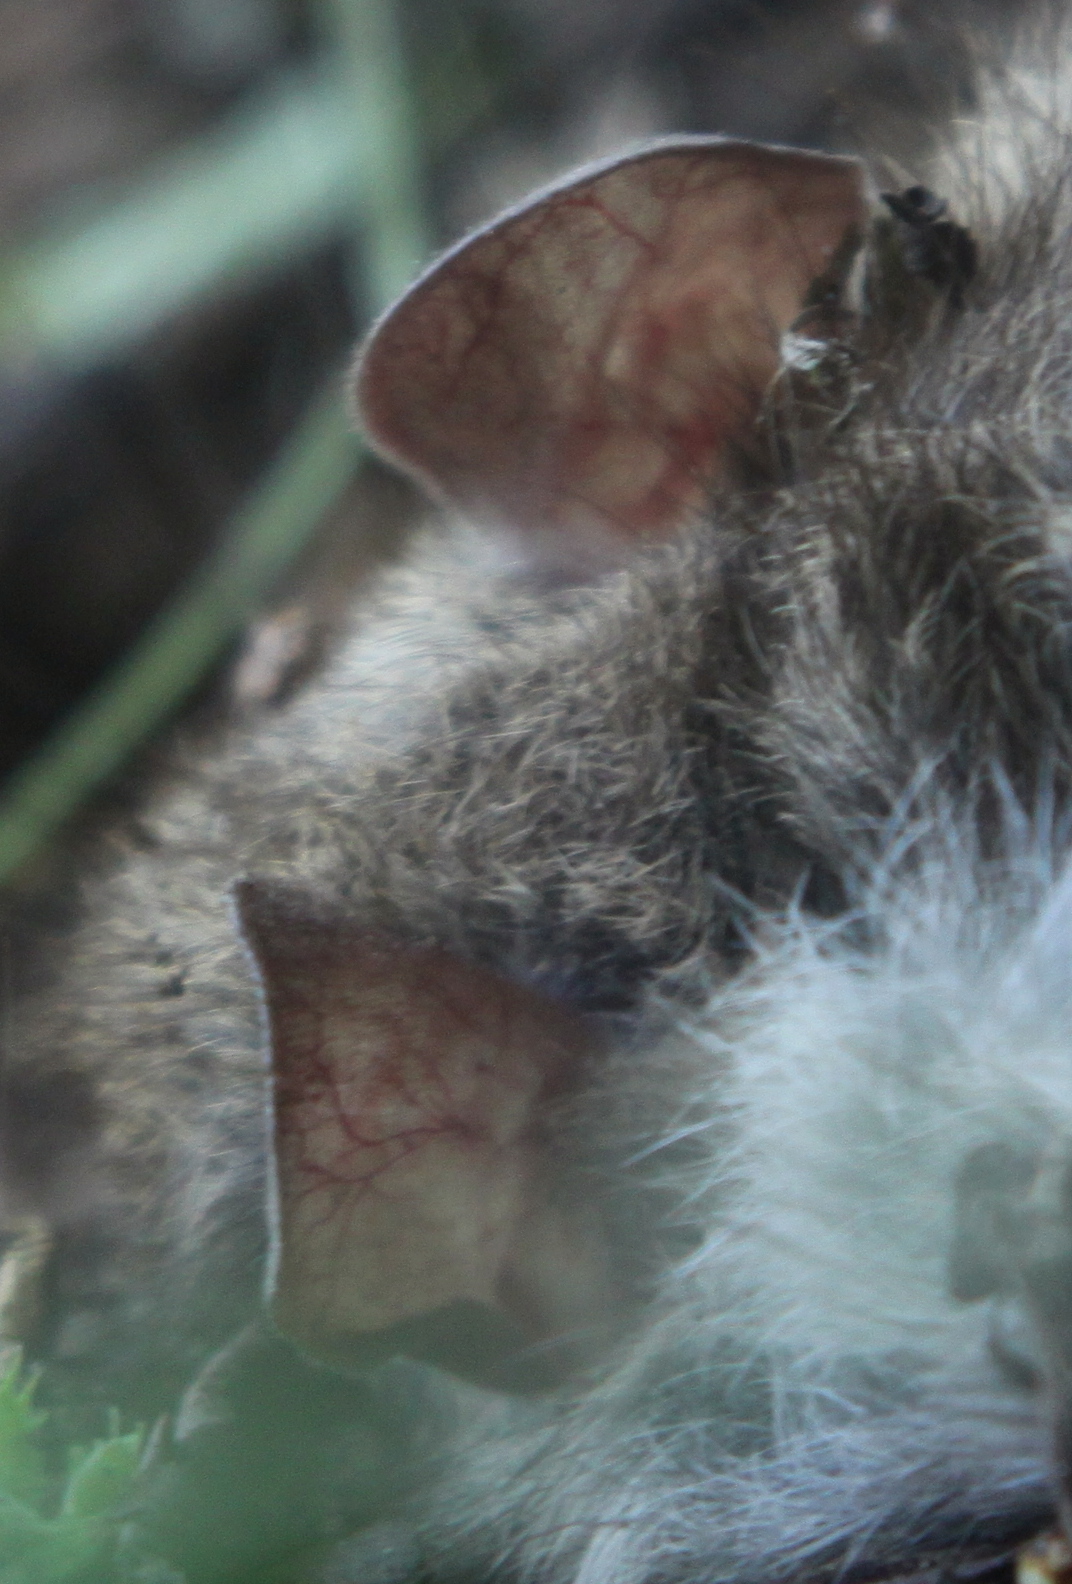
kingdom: Animalia
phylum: Chordata
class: Mammalia
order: Rodentia
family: Muridae
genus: Rattus
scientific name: Rattus rattus
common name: Black rat
